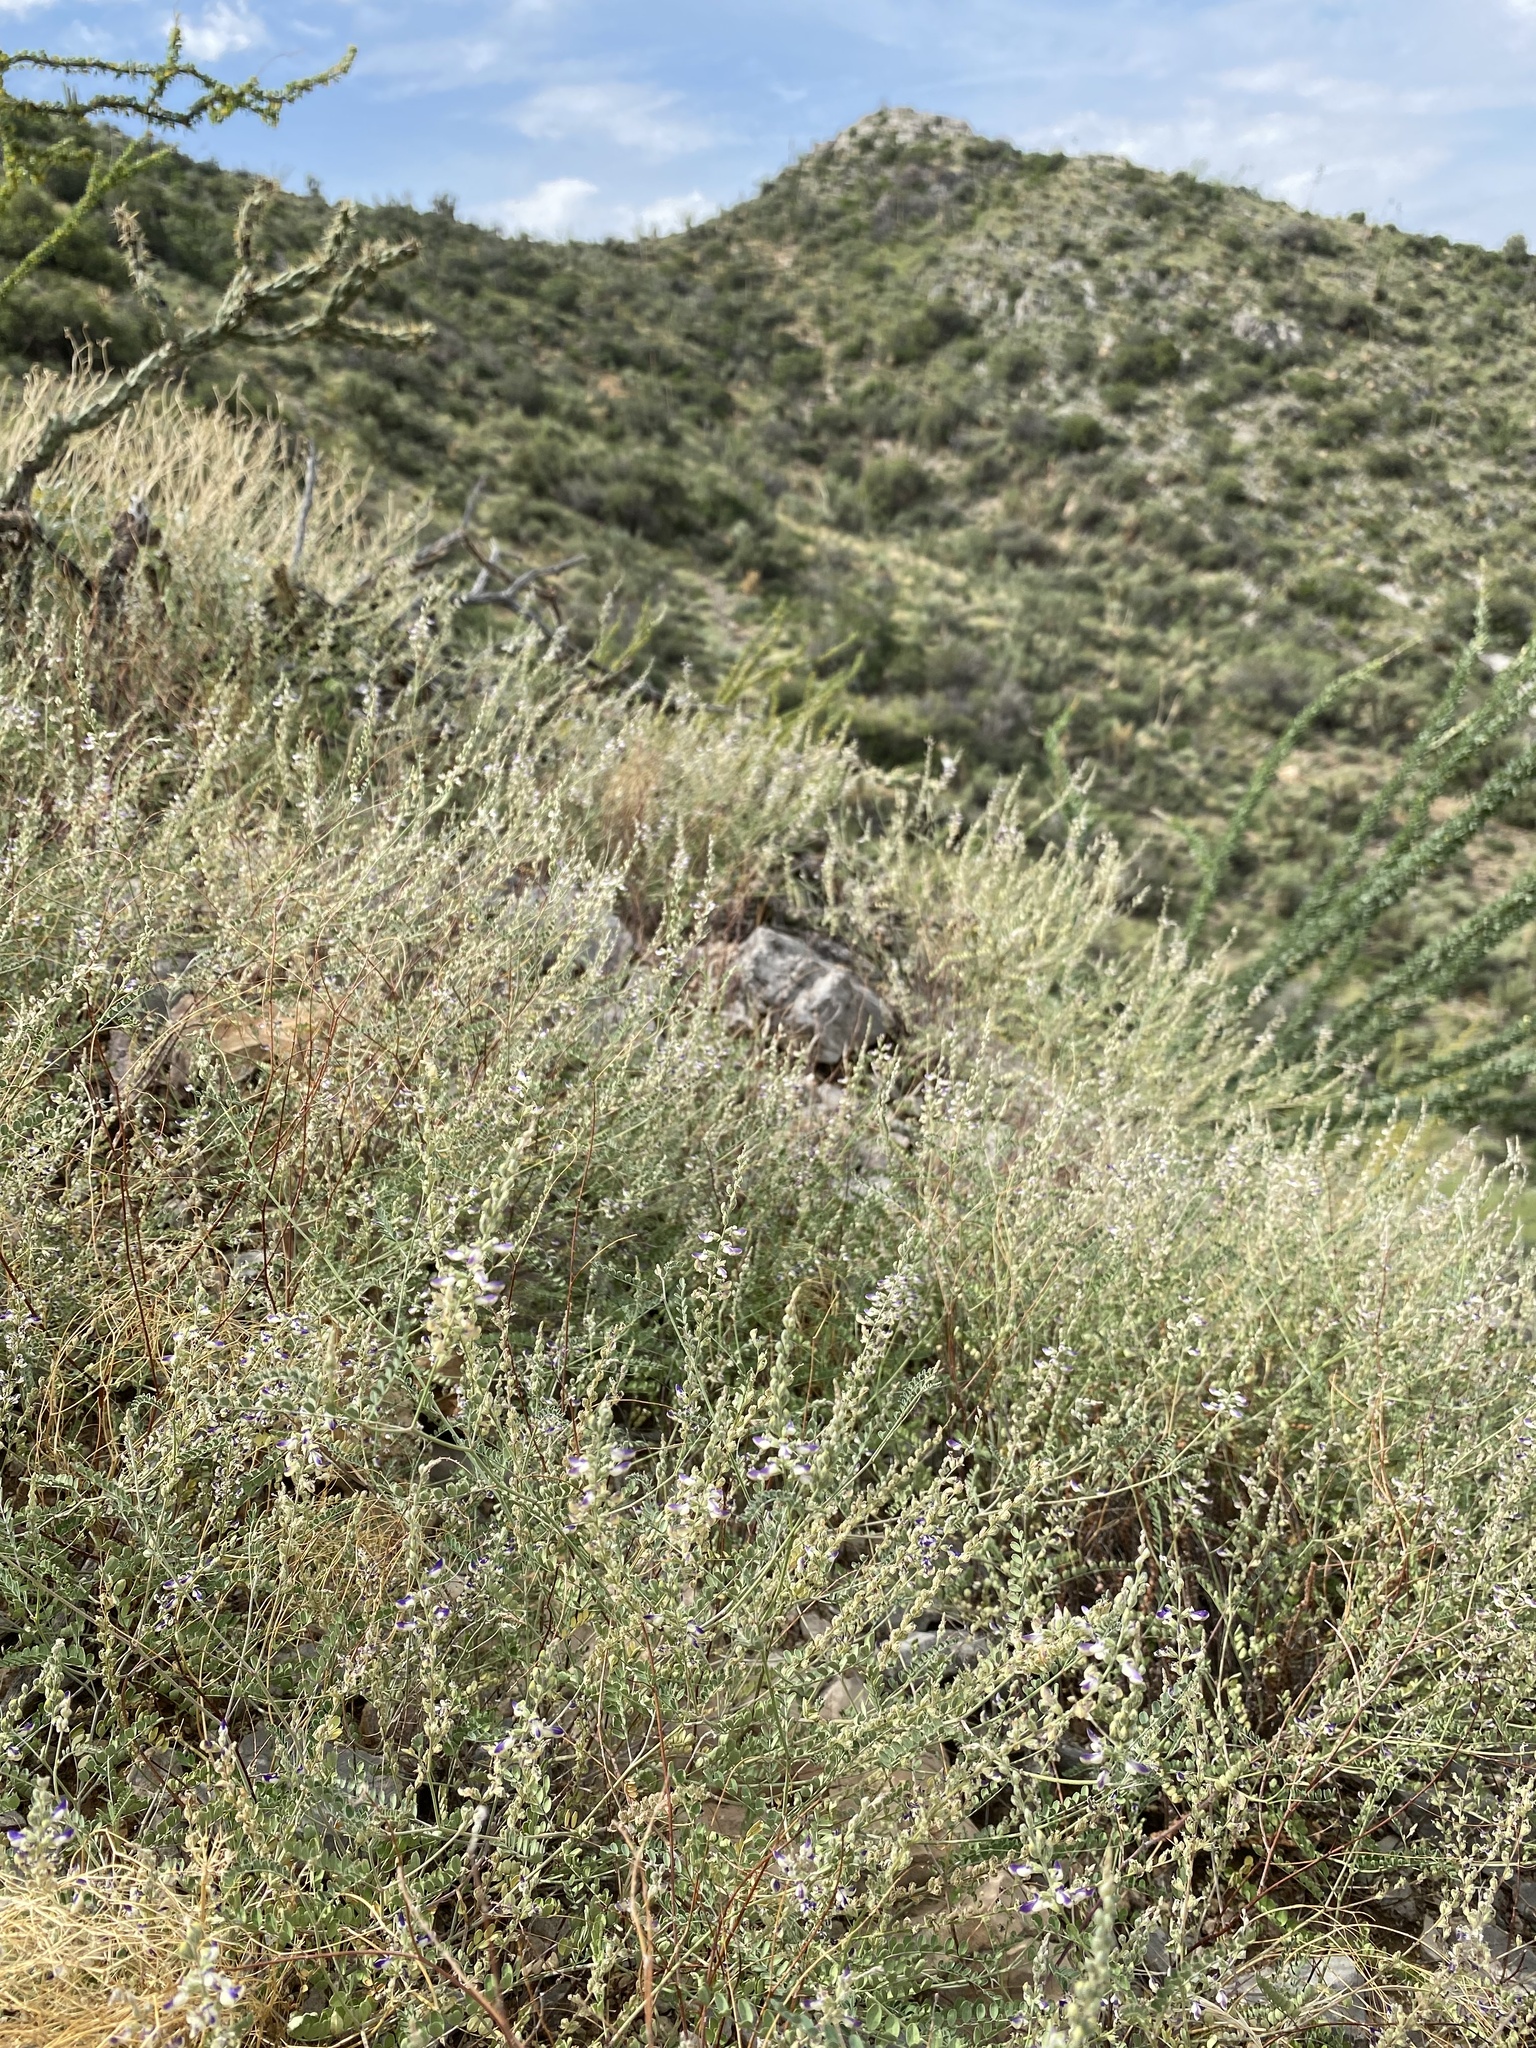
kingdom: Plantae
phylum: Tracheophyta
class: Magnoliopsida
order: Fabales
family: Fabaceae
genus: Marina
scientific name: Marina parryi
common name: Parry's marina
